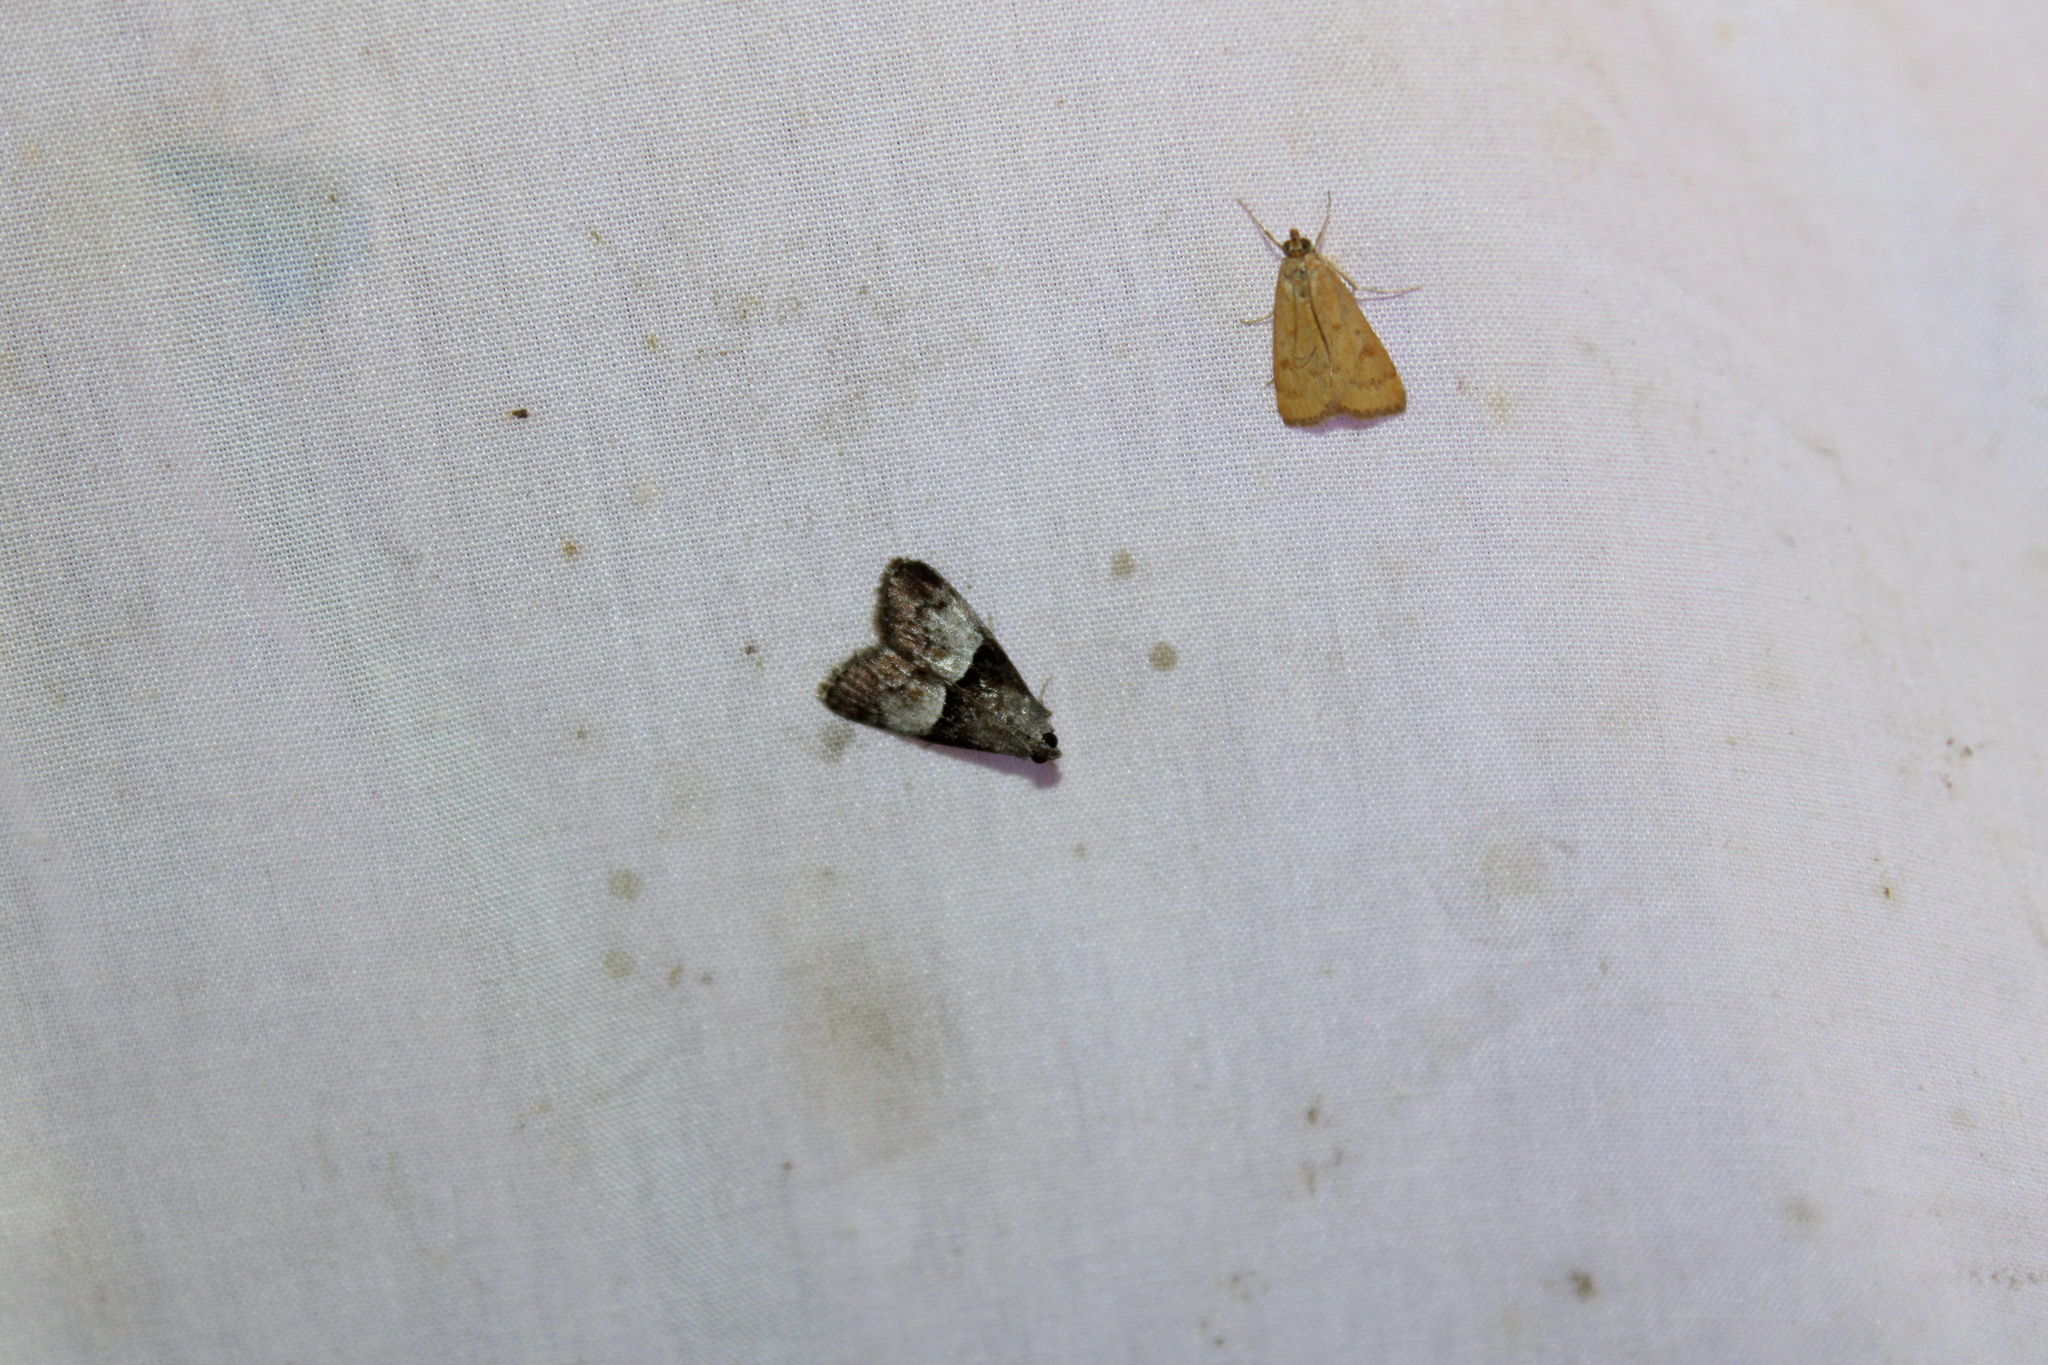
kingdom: Animalia
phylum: Arthropoda
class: Insecta
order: Lepidoptera
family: Pyralidae
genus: Macalla
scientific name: Macalla zelleri
